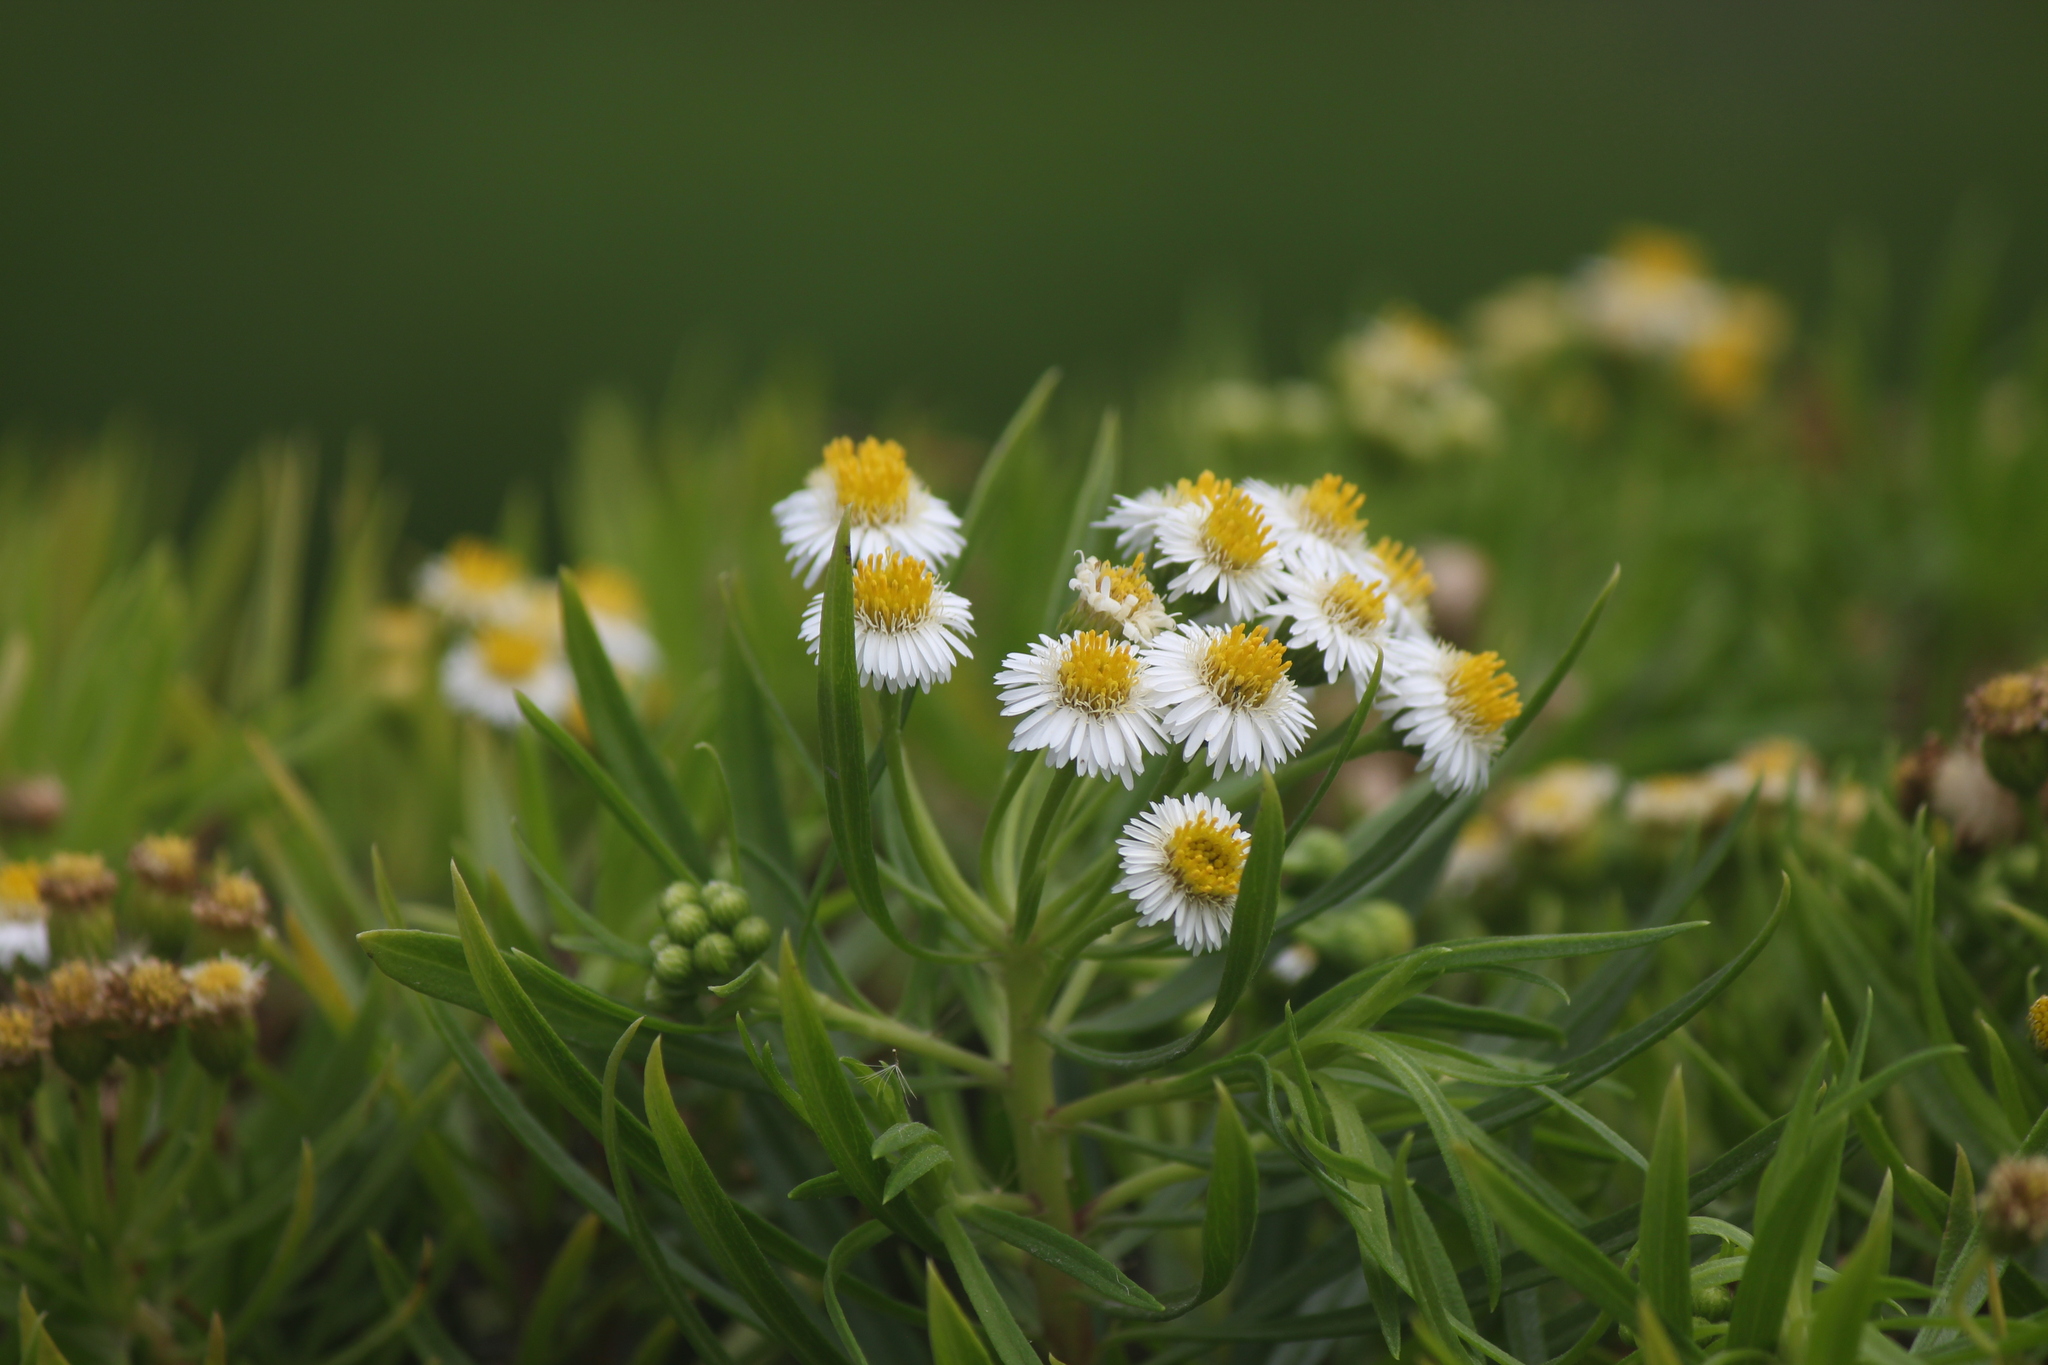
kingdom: Plantae
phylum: Tracheophyta
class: Magnoliopsida
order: Asterales
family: Asteraceae
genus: Erigeron
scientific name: Erigeron tenuifolius
